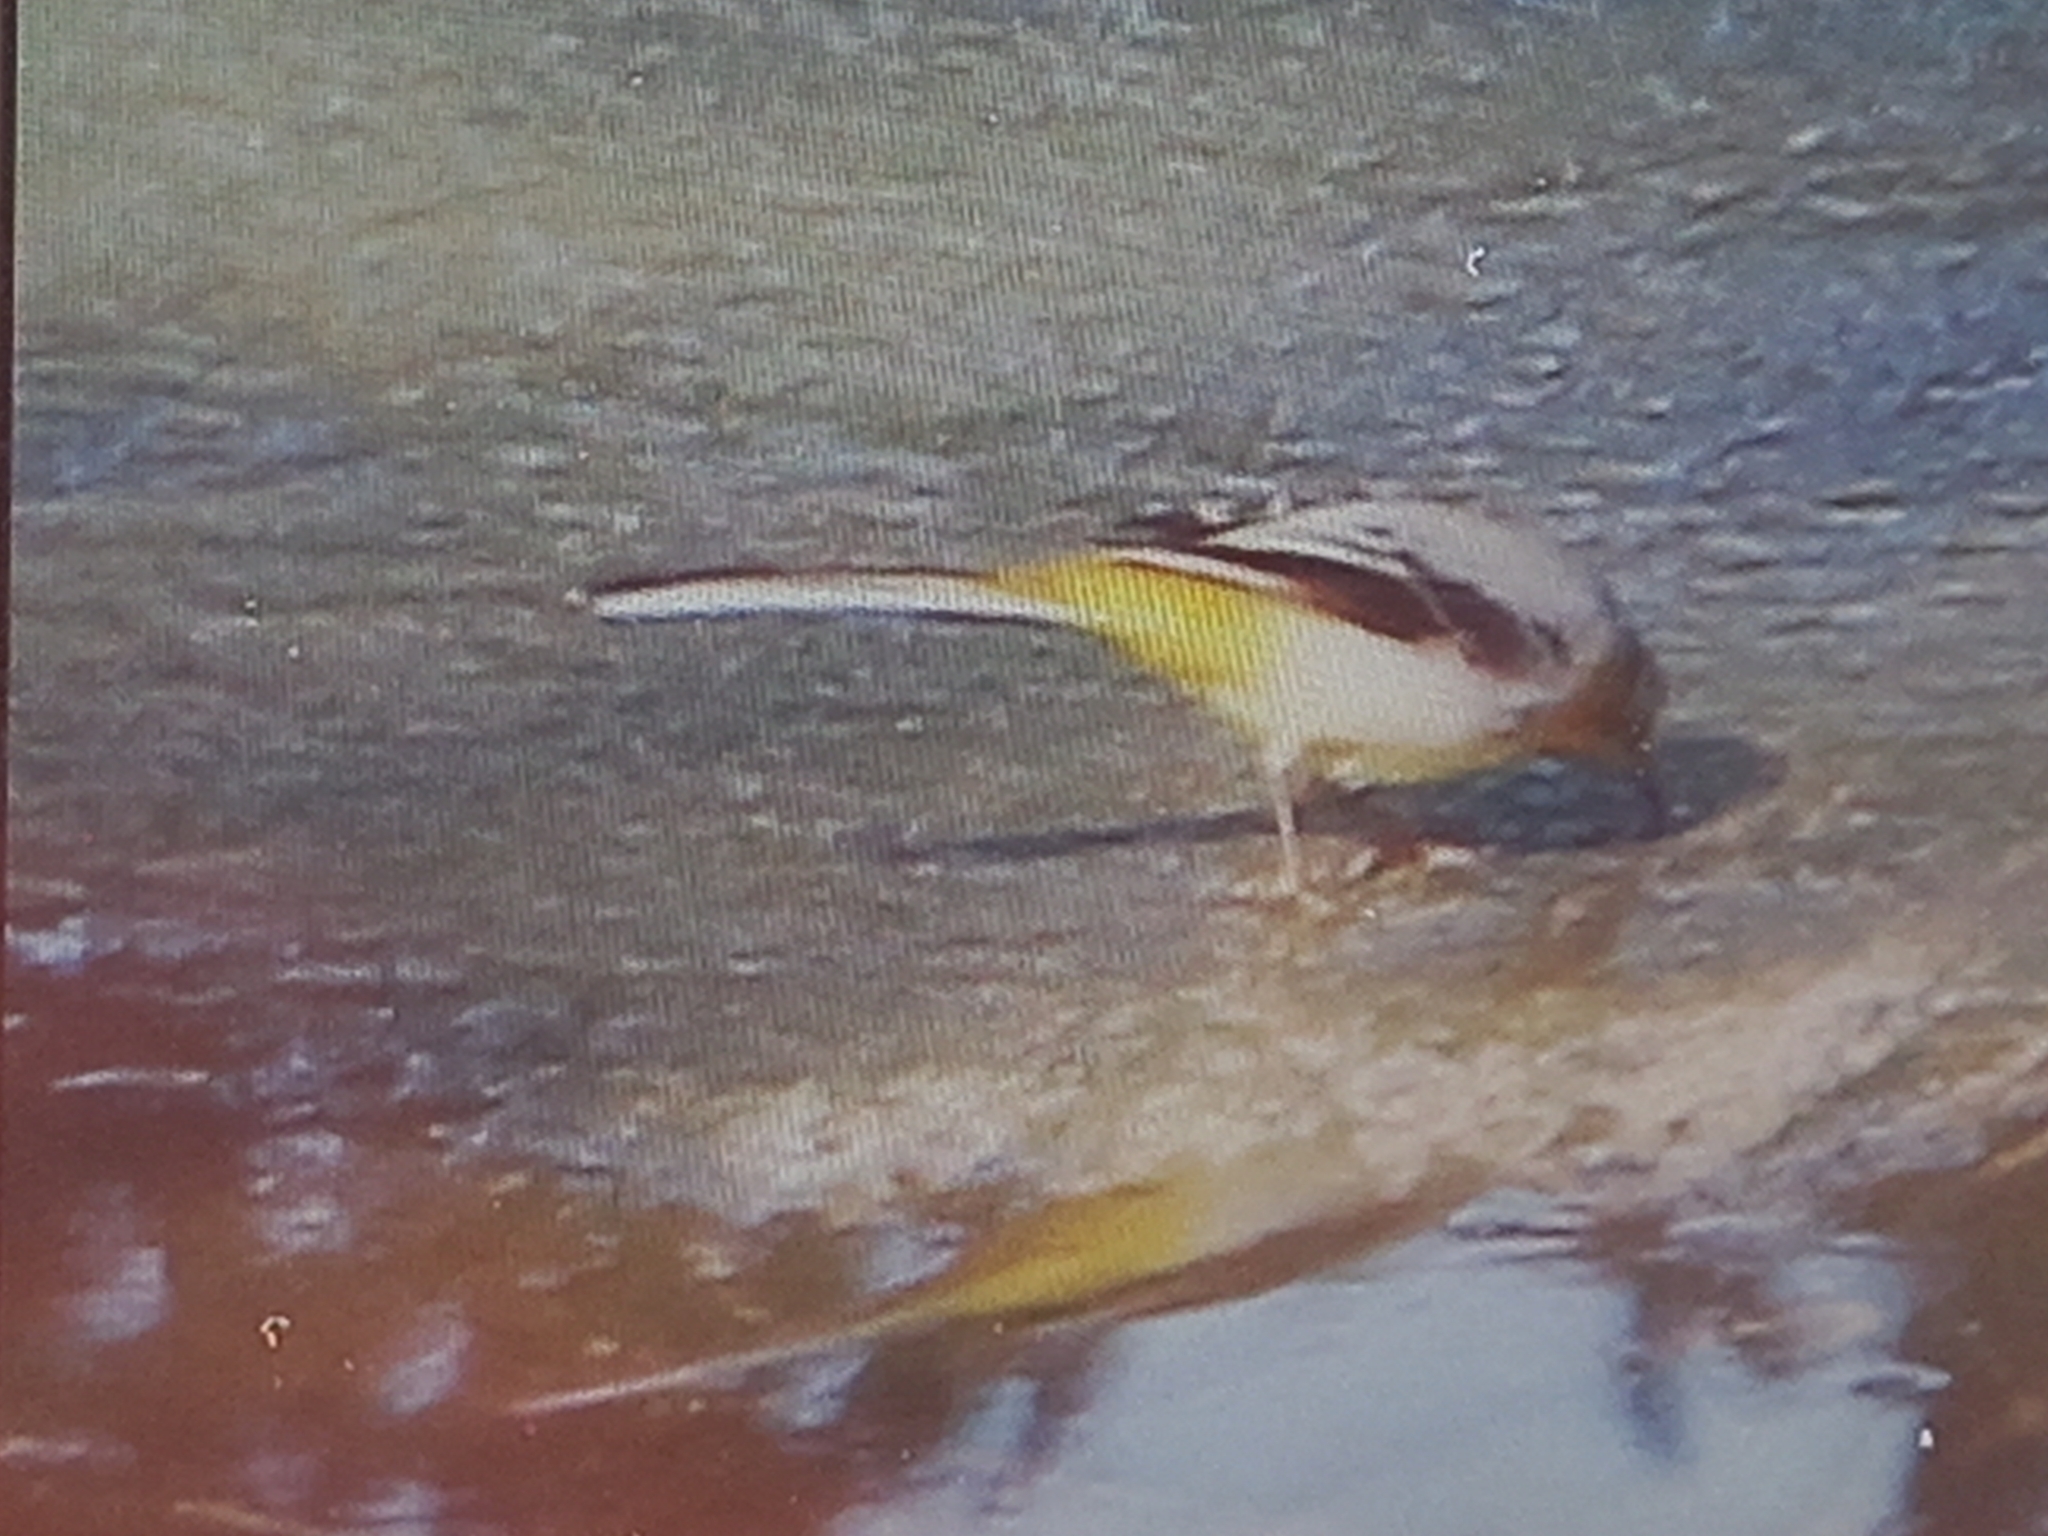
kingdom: Animalia
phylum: Chordata
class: Aves
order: Passeriformes
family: Motacillidae
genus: Motacilla
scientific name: Motacilla cinerea
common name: Grey wagtail
